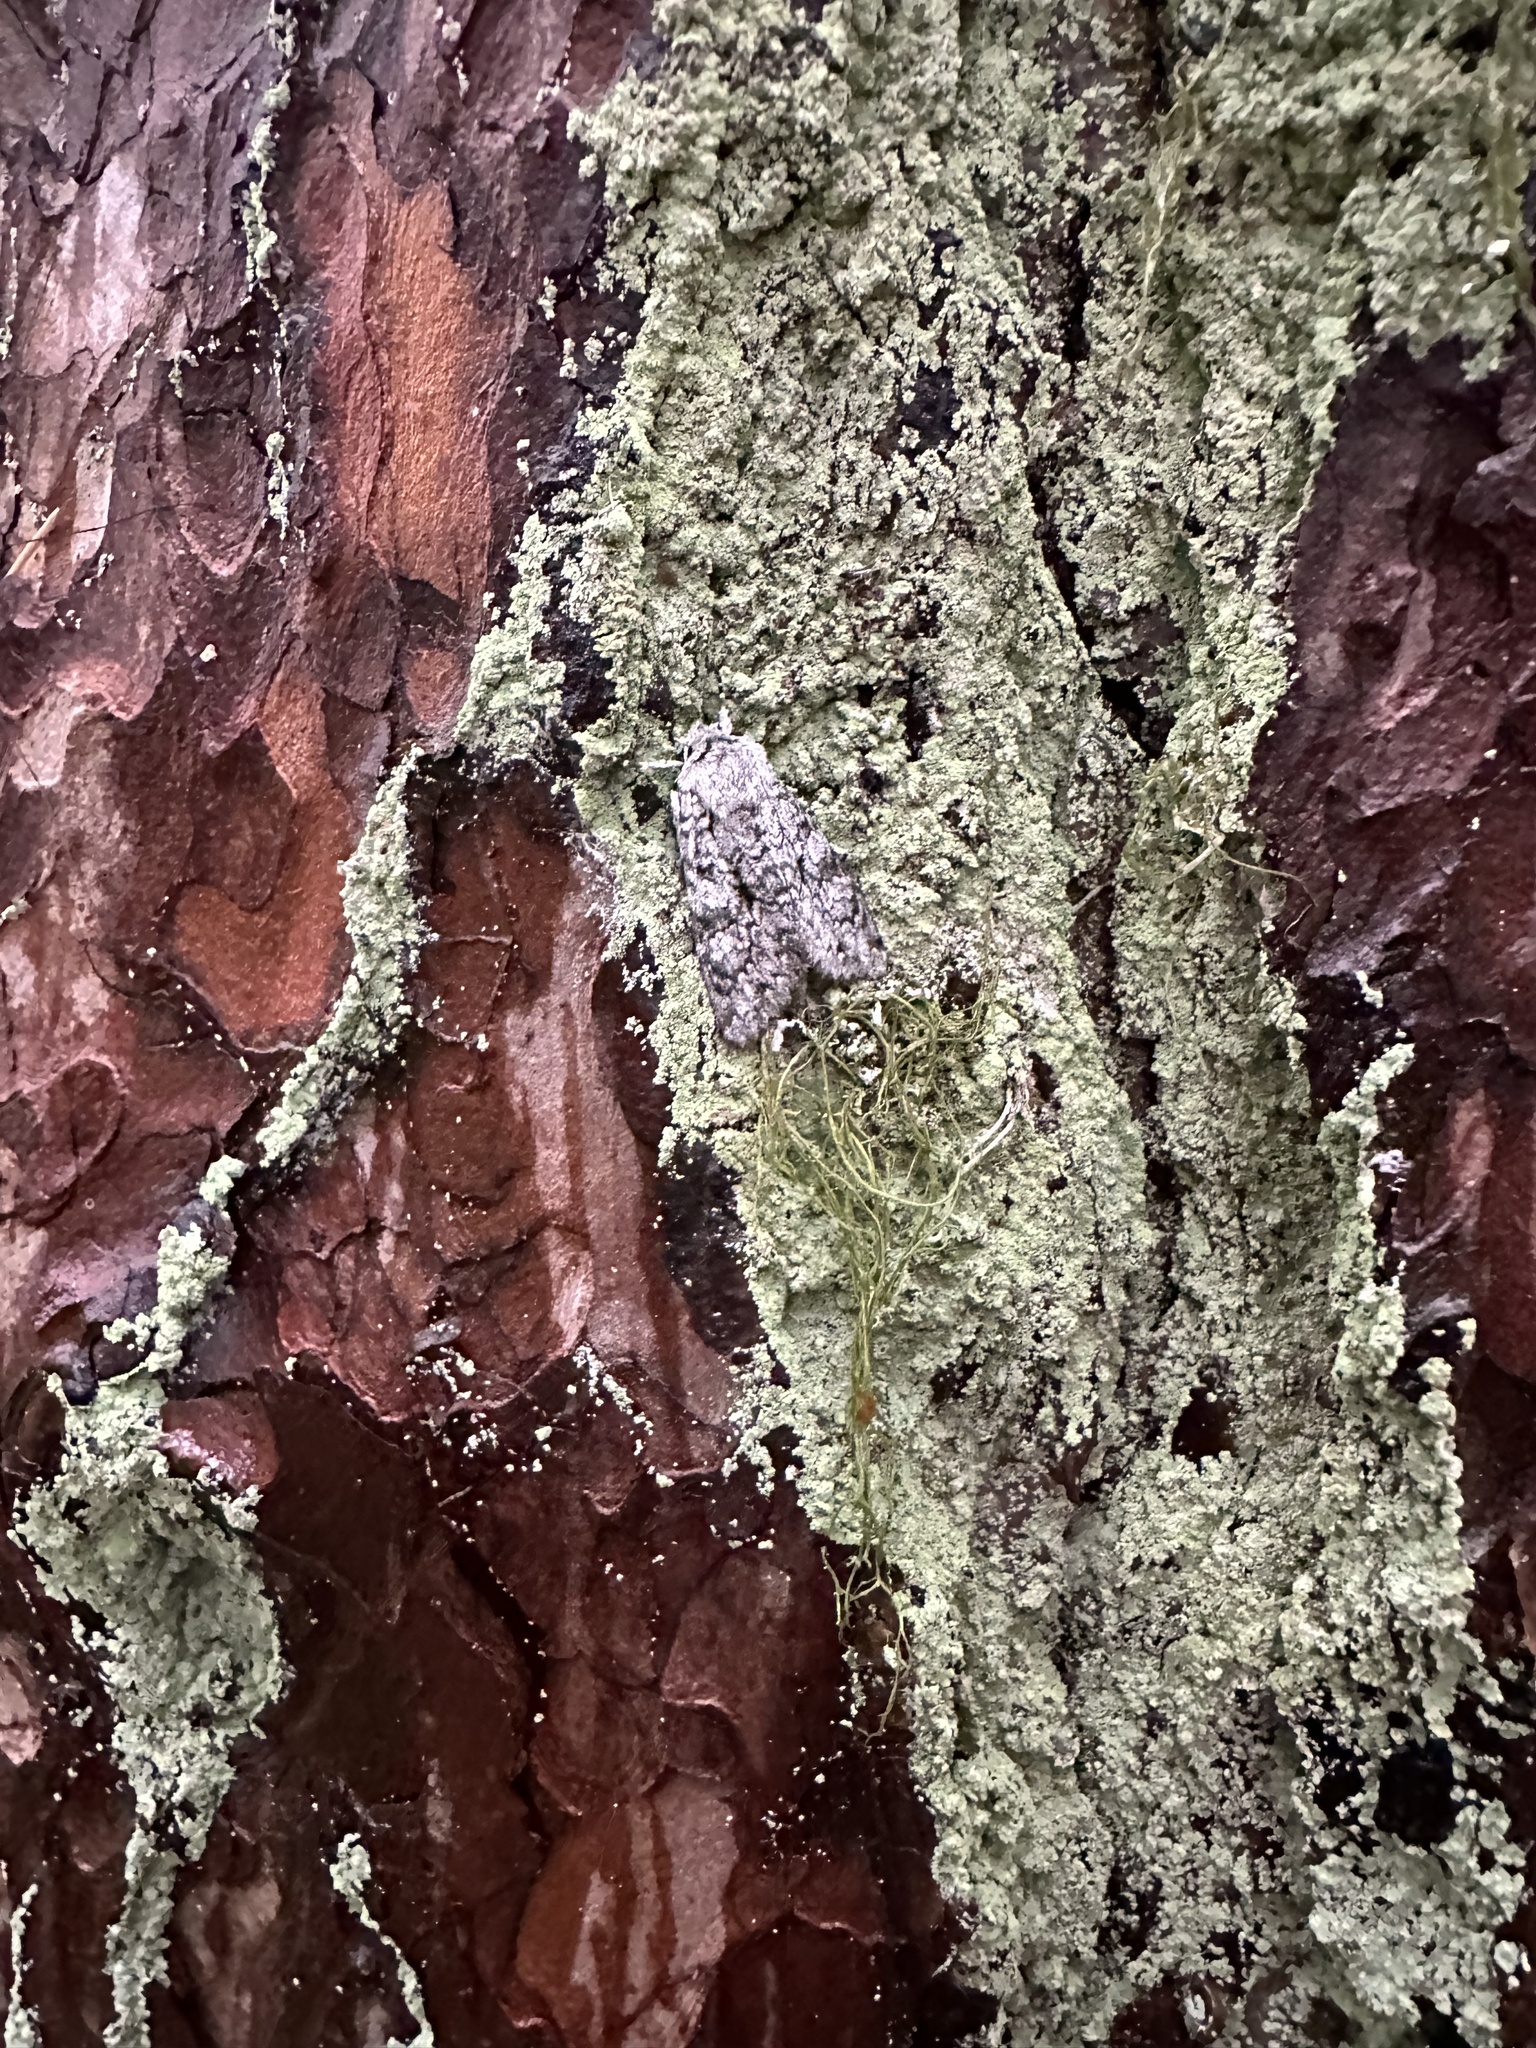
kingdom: Animalia
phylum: Arthropoda
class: Insecta
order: Lepidoptera
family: Noctuidae
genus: Antitype
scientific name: Antitype chi
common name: Grey chi
